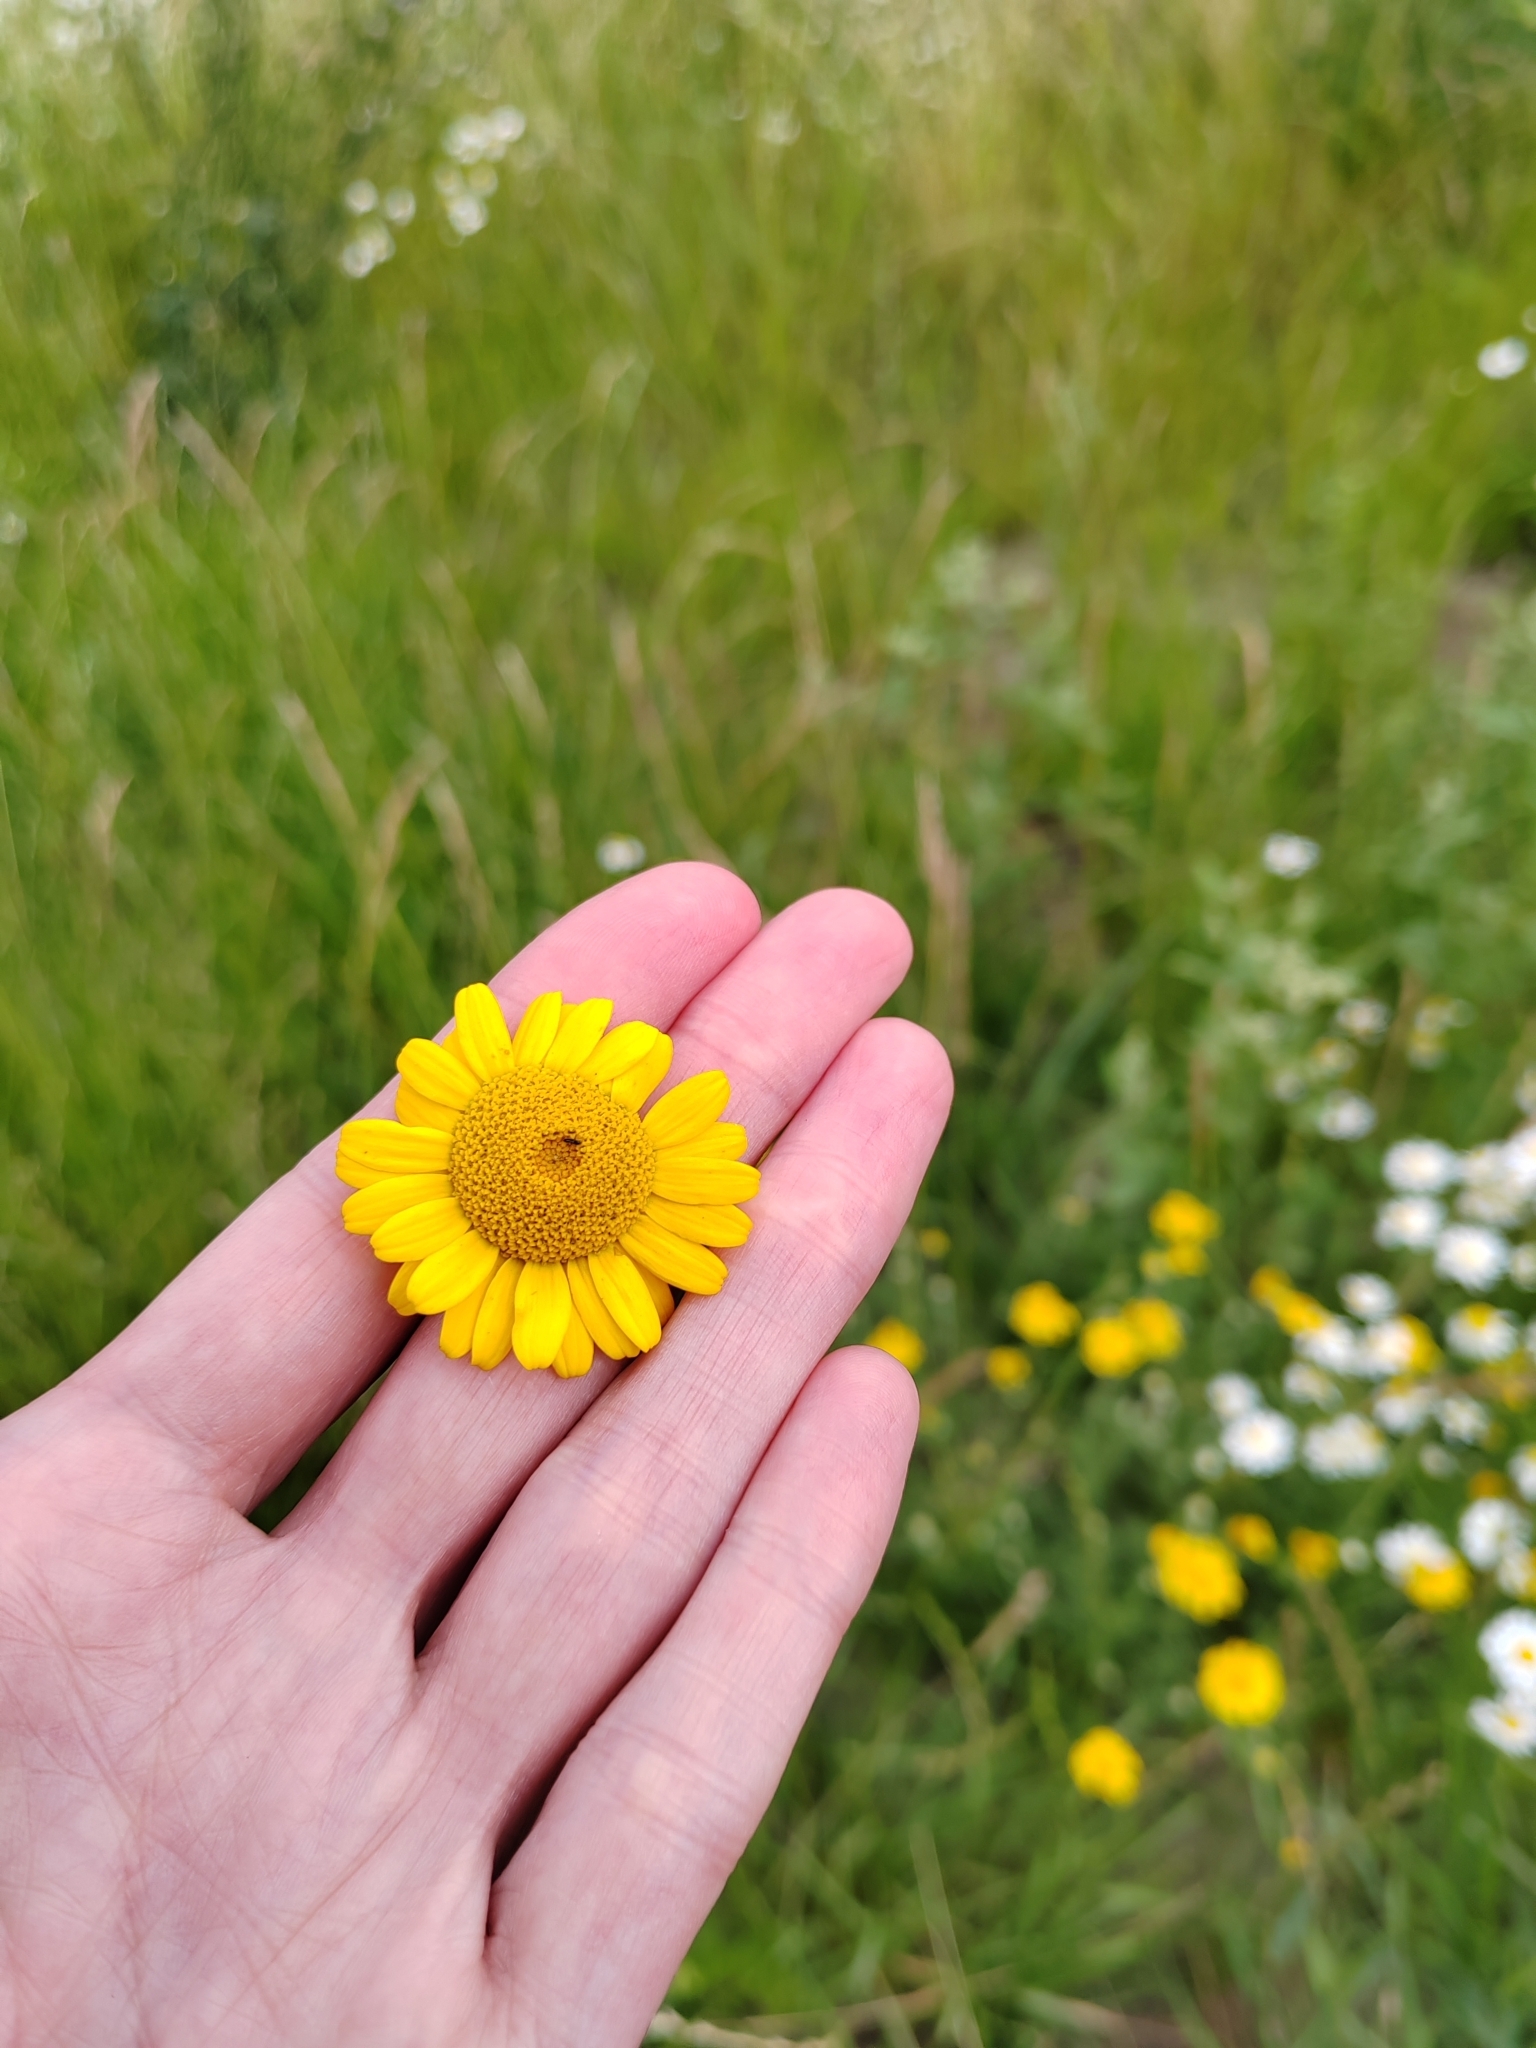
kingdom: Plantae
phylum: Tracheophyta
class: Magnoliopsida
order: Asterales
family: Asteraceae
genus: Cota
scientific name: Cota tinctoria
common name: Golden chamomile
